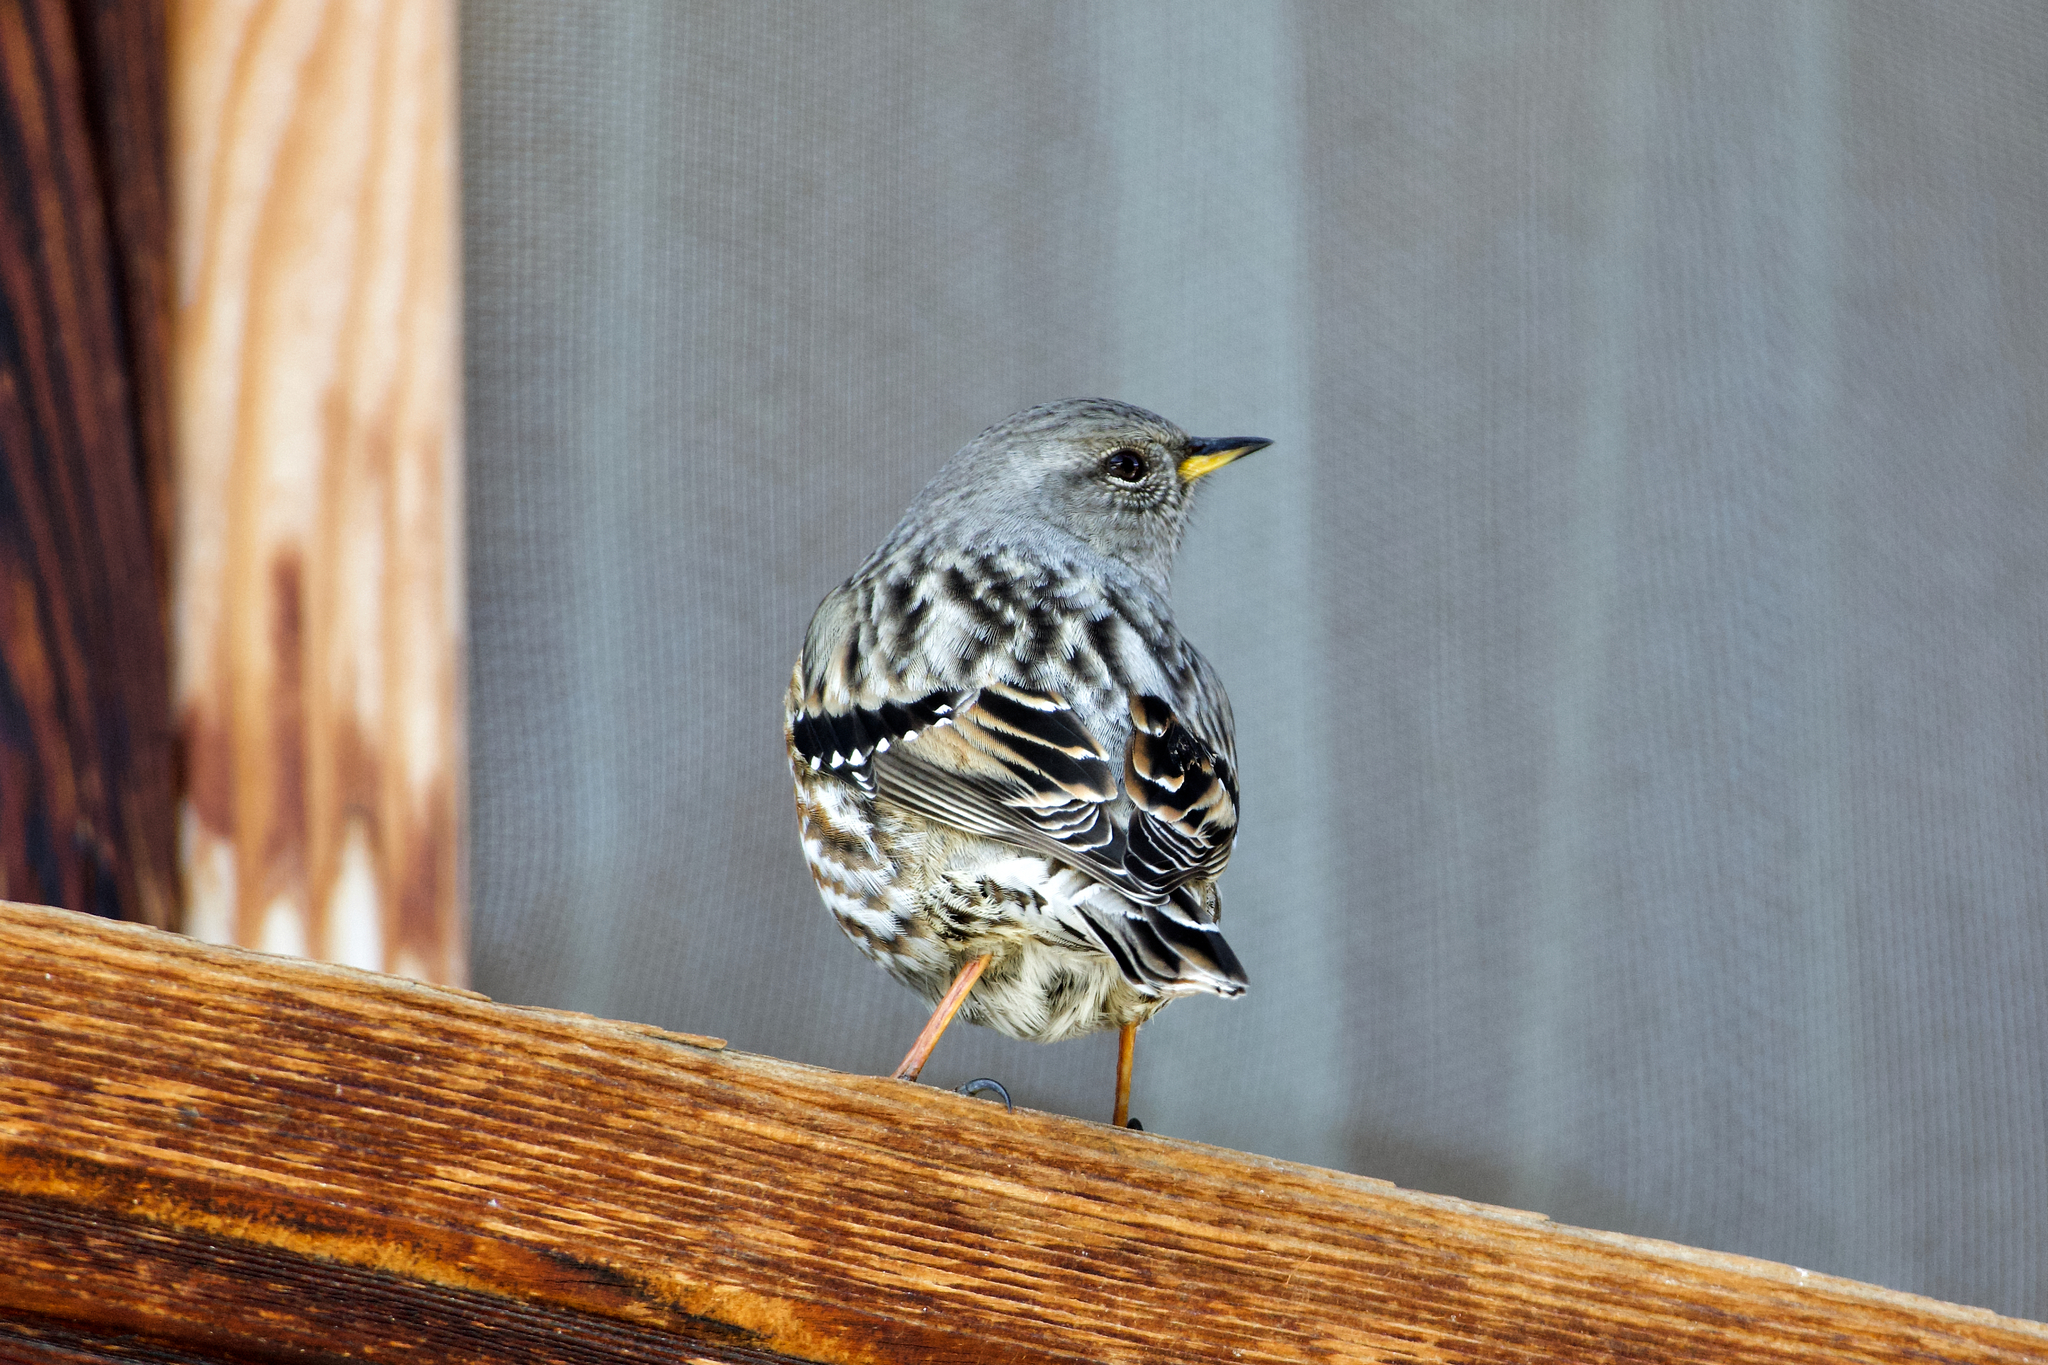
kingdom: Animalia
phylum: Chordata
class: Aves
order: Passeriformes
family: Prunellidae
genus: Prunella
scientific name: Prunella collaris
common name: Alpine accentor
